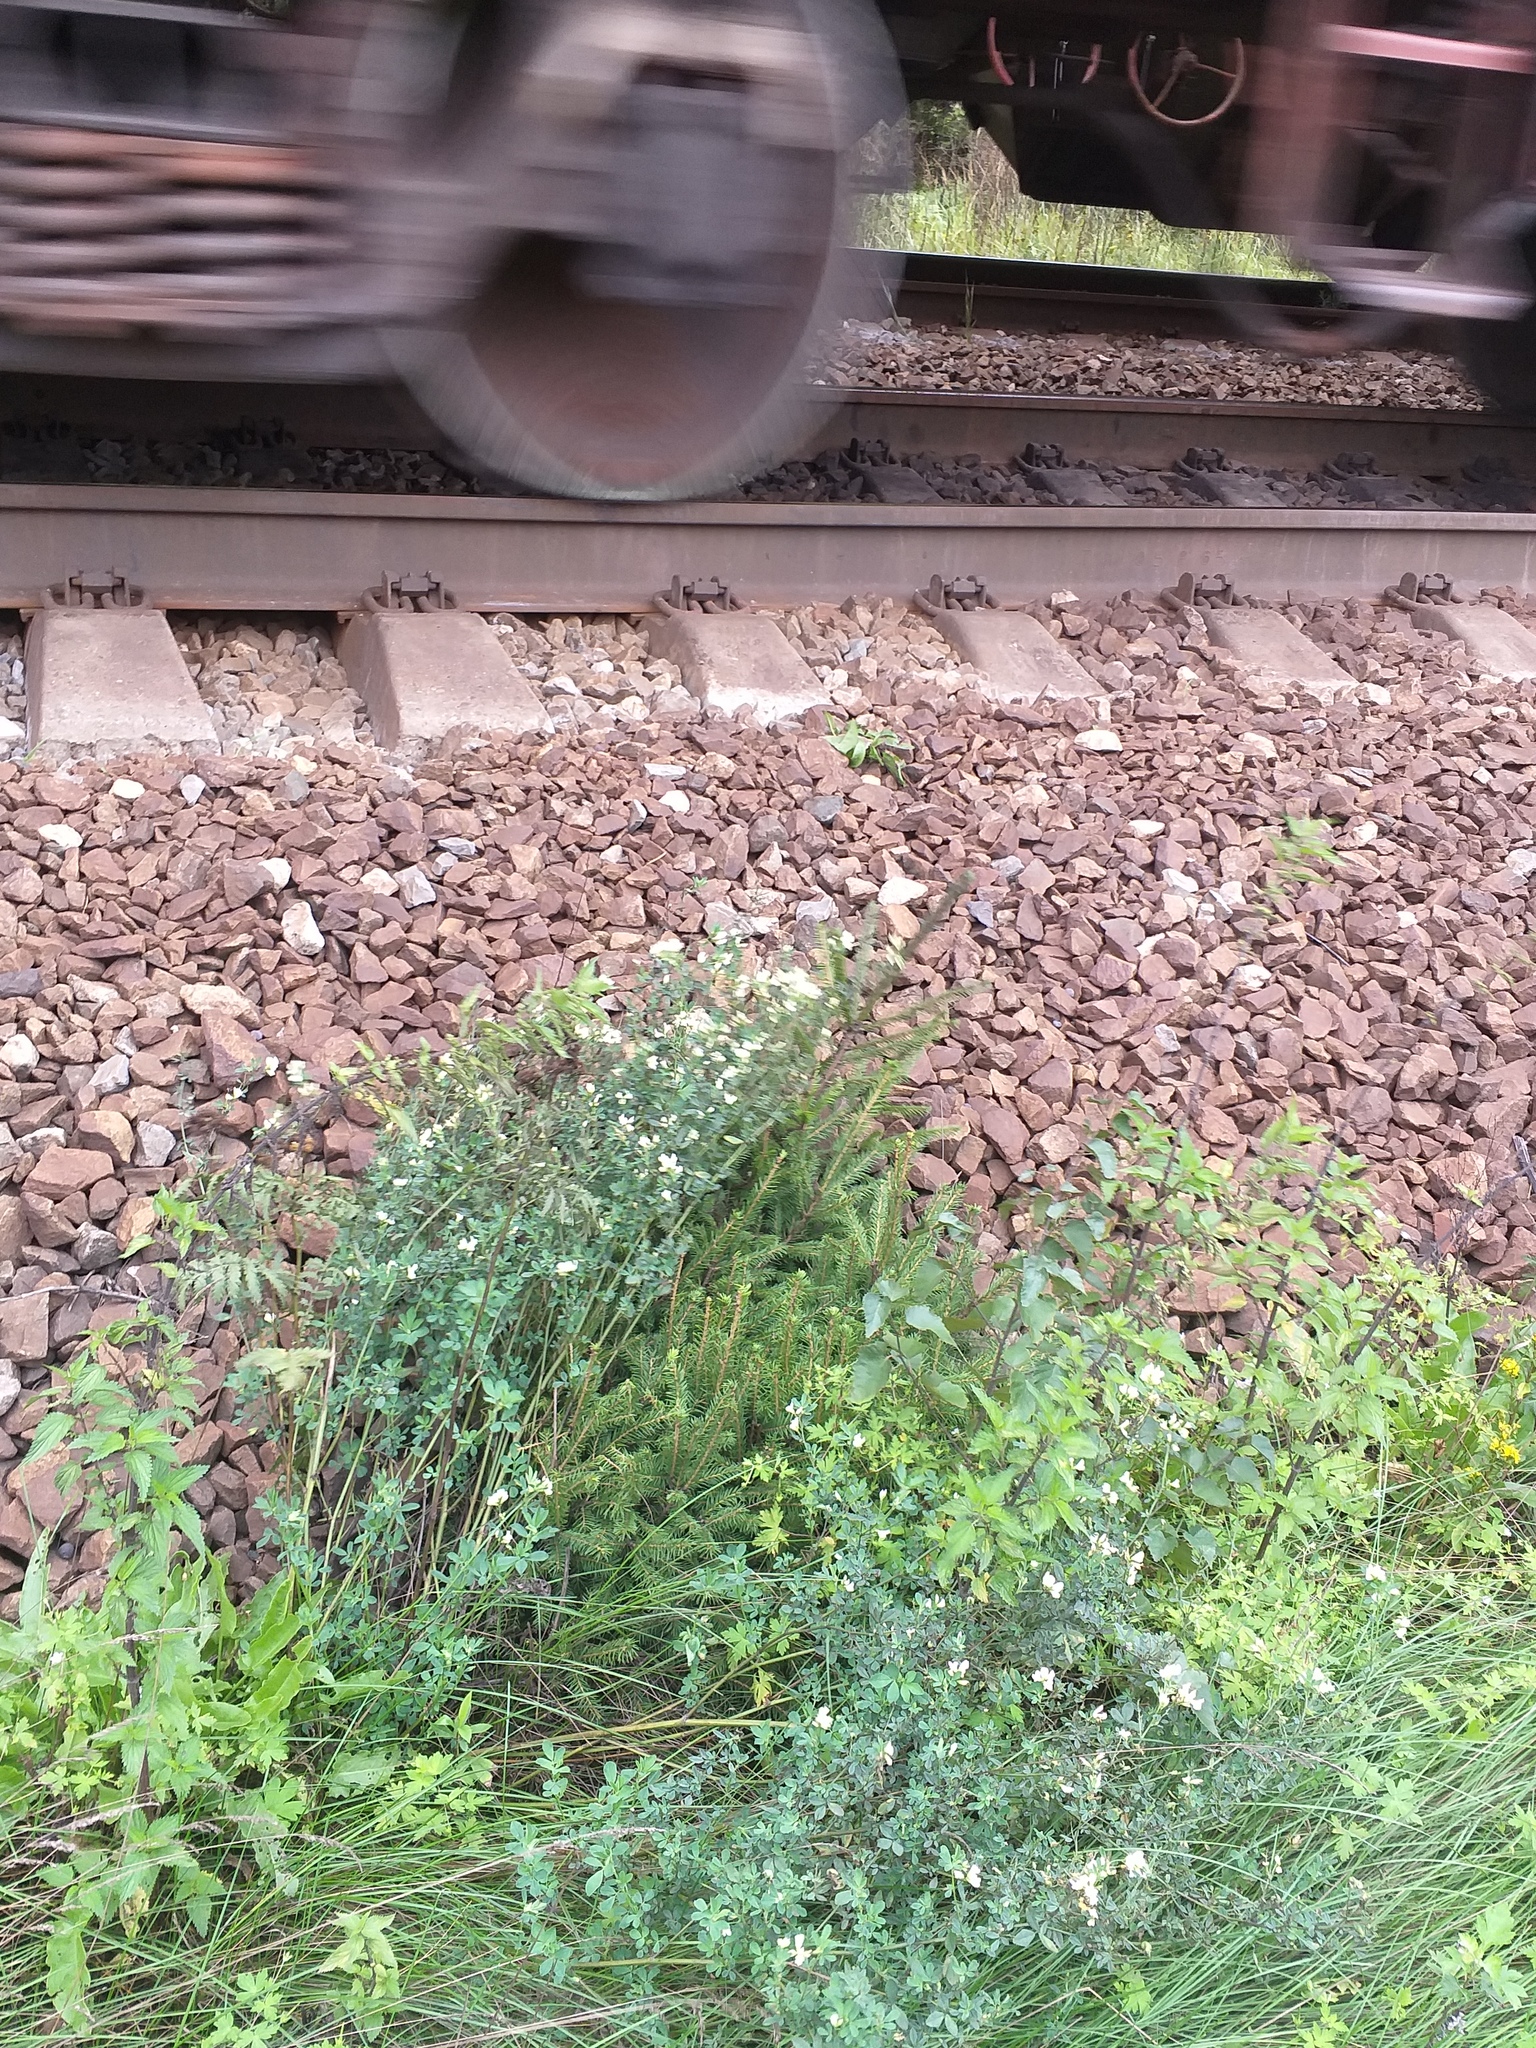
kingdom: Plantae
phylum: Tracheophyta
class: Magnoliopsida
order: Fabales
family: Fabaceae
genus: Medicago
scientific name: Medicago varia
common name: Sand lucerne
